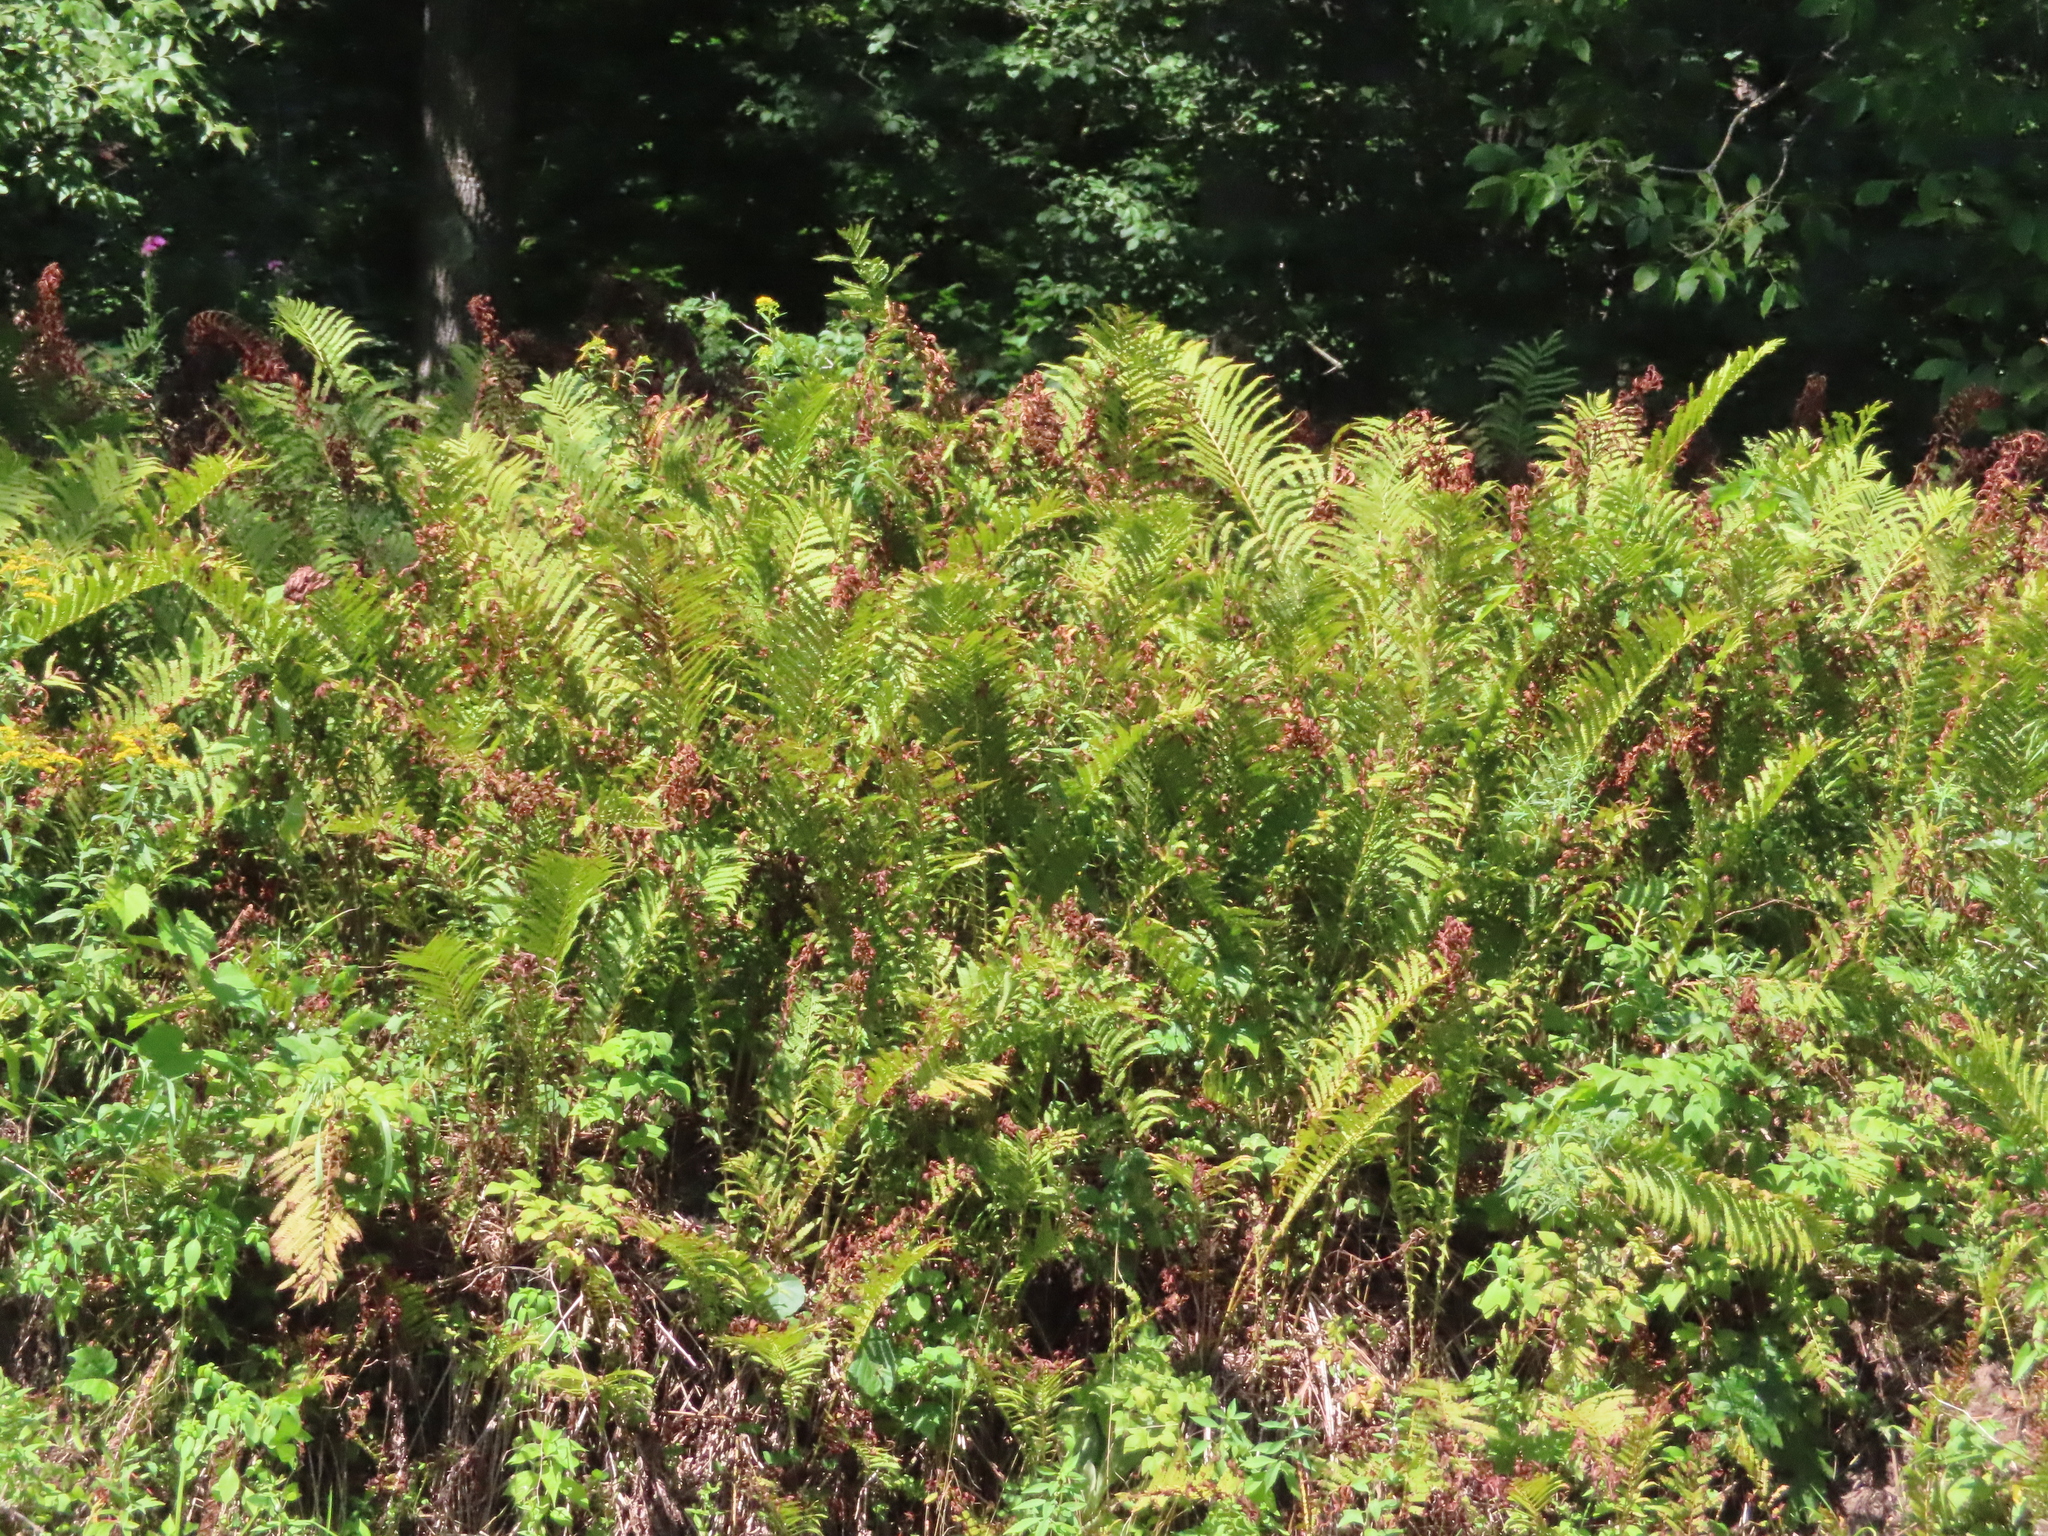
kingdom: Plantae
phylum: Tracheophyta
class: Polypodiopsida
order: Polypodiales
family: Onocleaceae
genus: Matteuccia
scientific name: Matteuccia struthiopteris
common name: Ostrich fern
